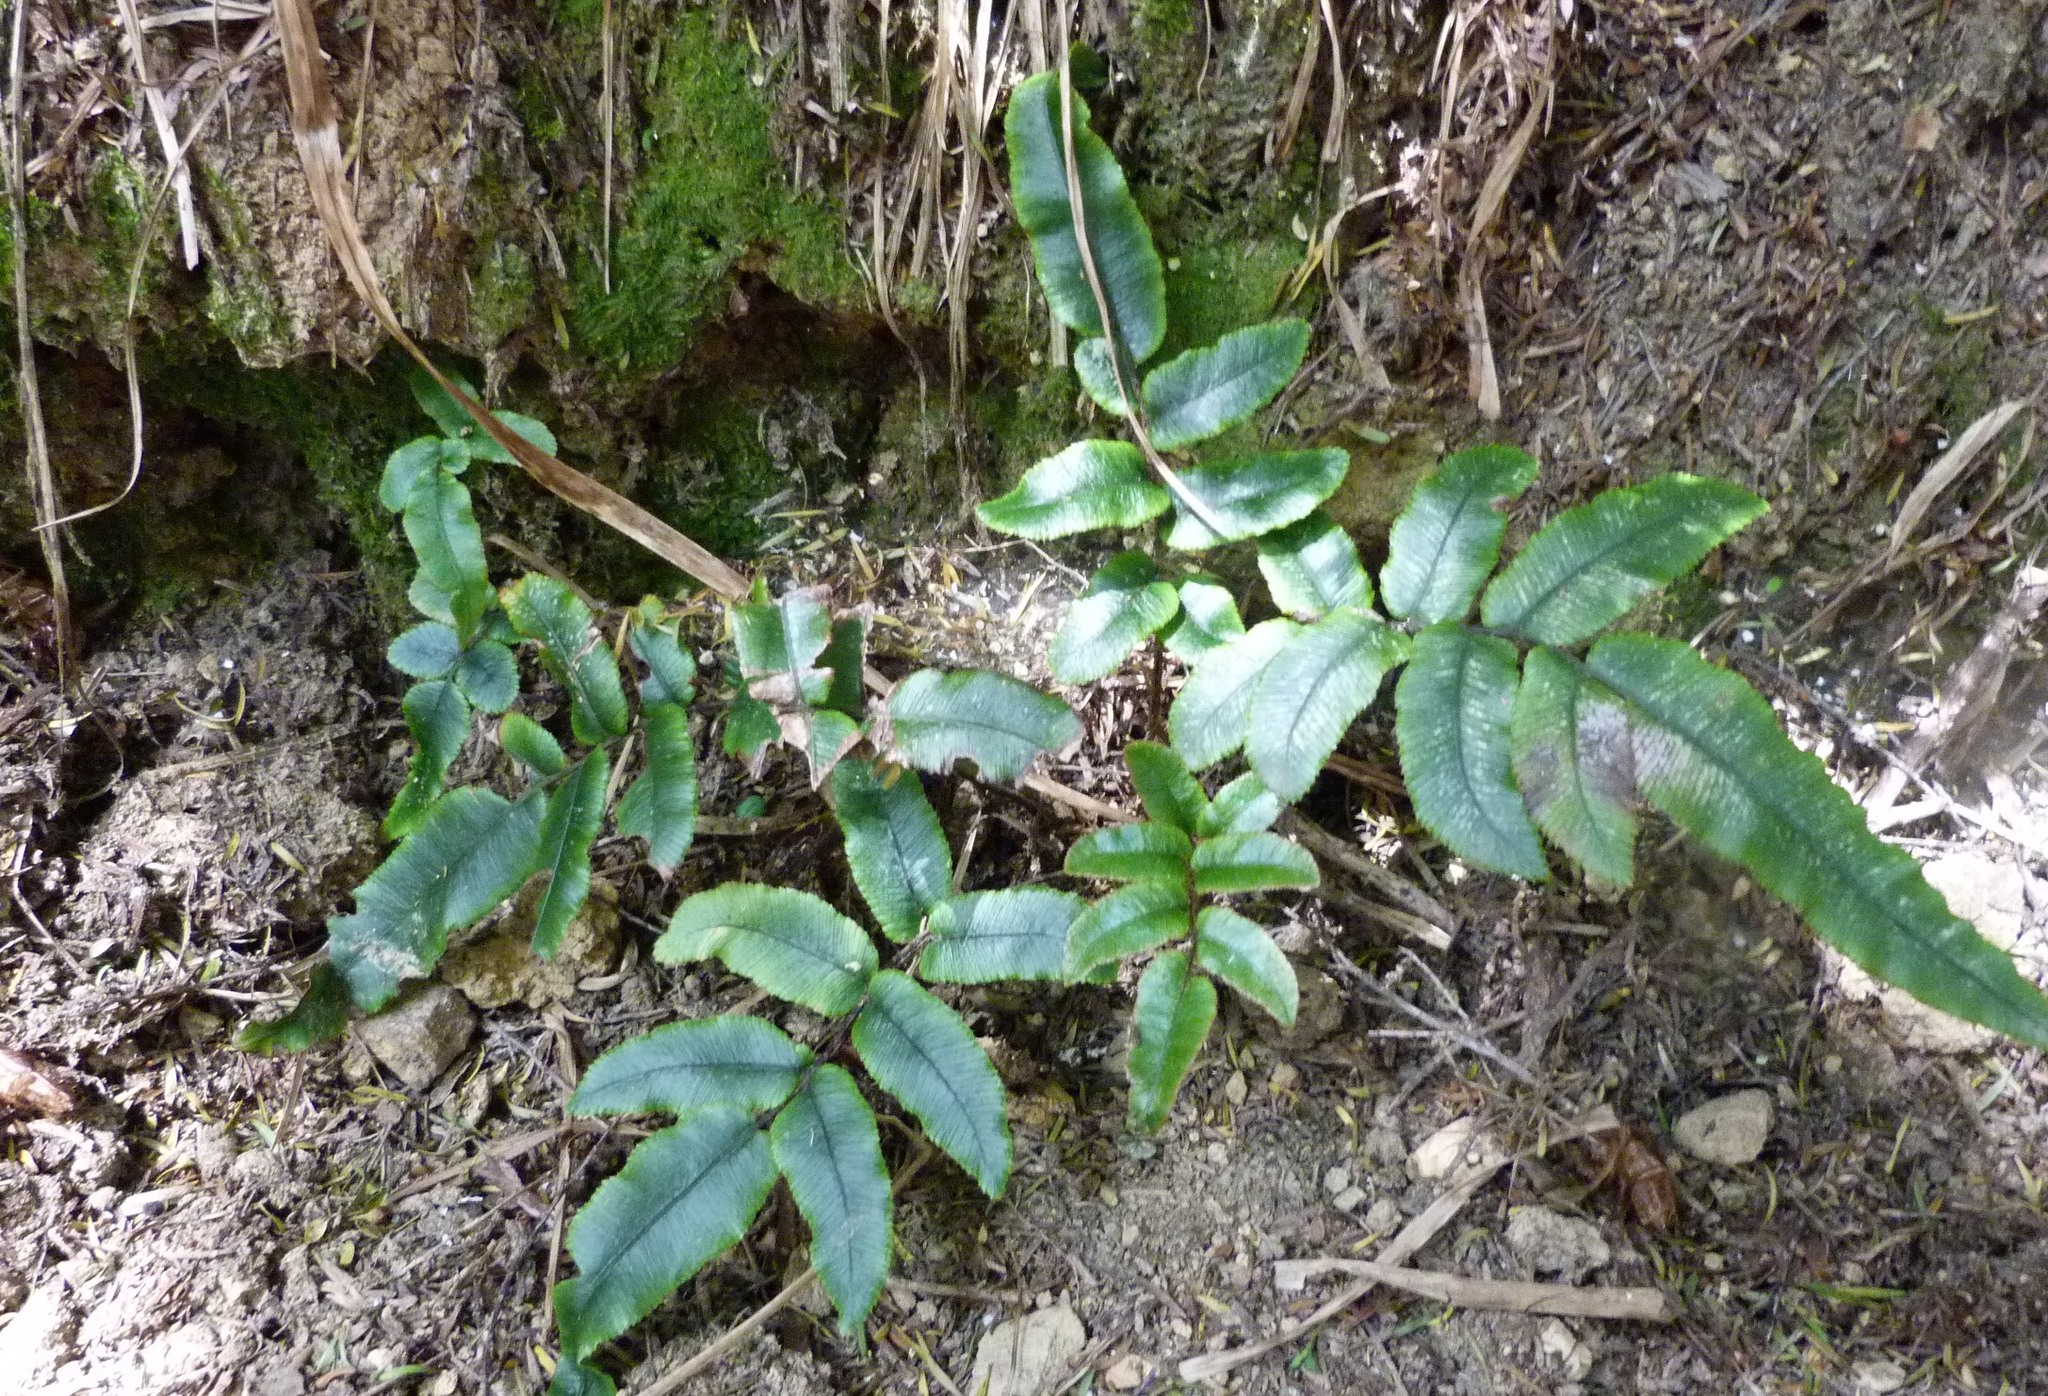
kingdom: Plantae
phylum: Tracheophyta
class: Polypodiopsida
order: Polypodiales
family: Blechnaceae
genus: Parablechnum
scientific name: Parablechnum procerum
